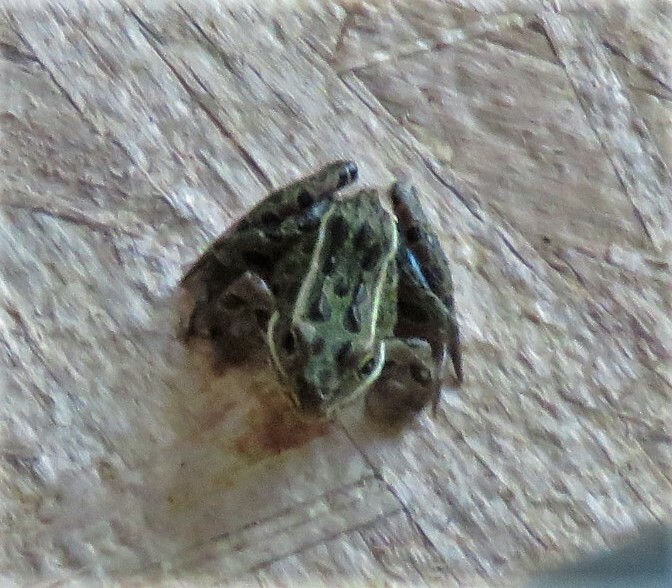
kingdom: Animalia
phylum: Chordata
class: Amphibia
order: Anura
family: Ranidae
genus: Lithobates
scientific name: Lithobates pipiens
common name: Northern leopard frog
